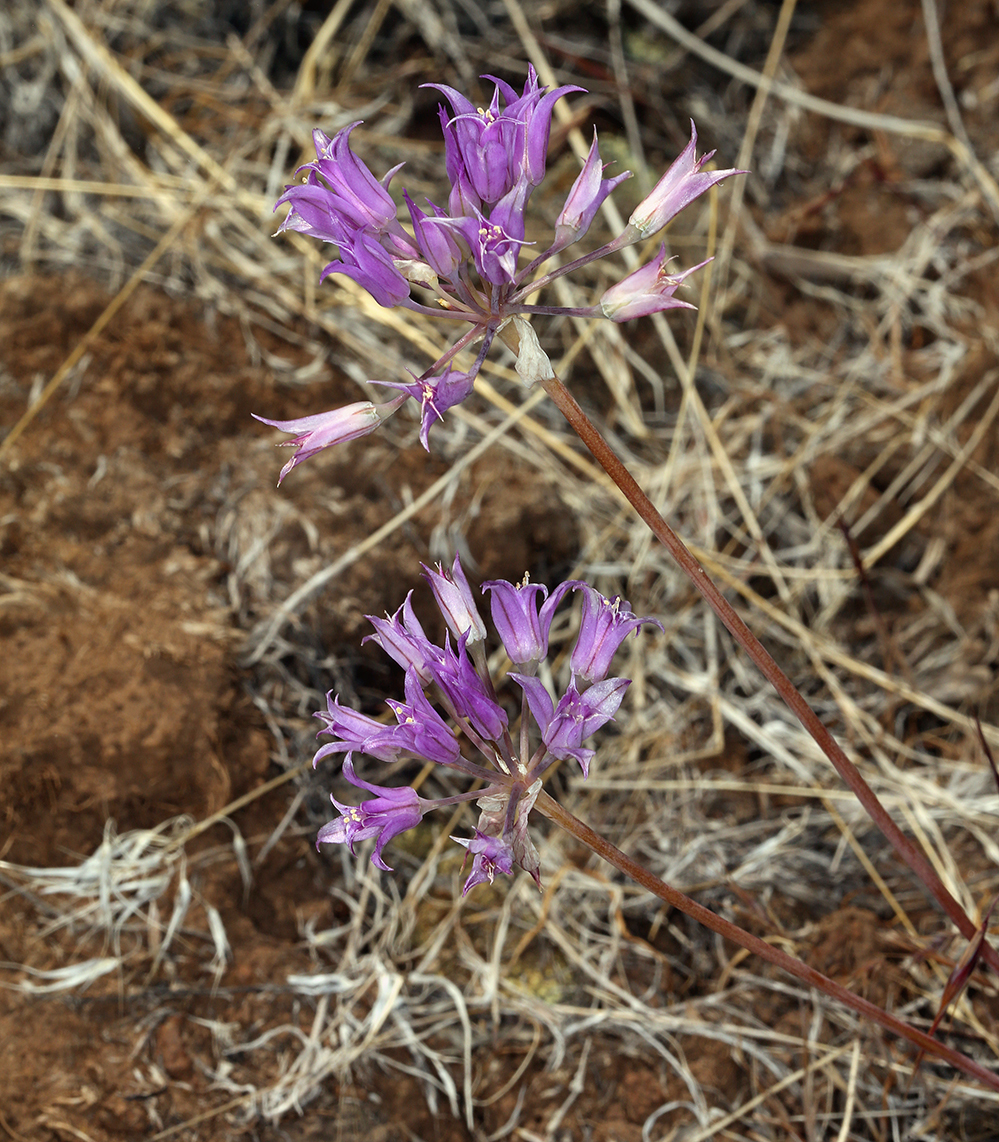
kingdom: Plantae
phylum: Tracheophyta
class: Liliopsida
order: Asparagales
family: Amaryllidaceae
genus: Allium
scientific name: Allium acuminatum
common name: Hooker's onion
